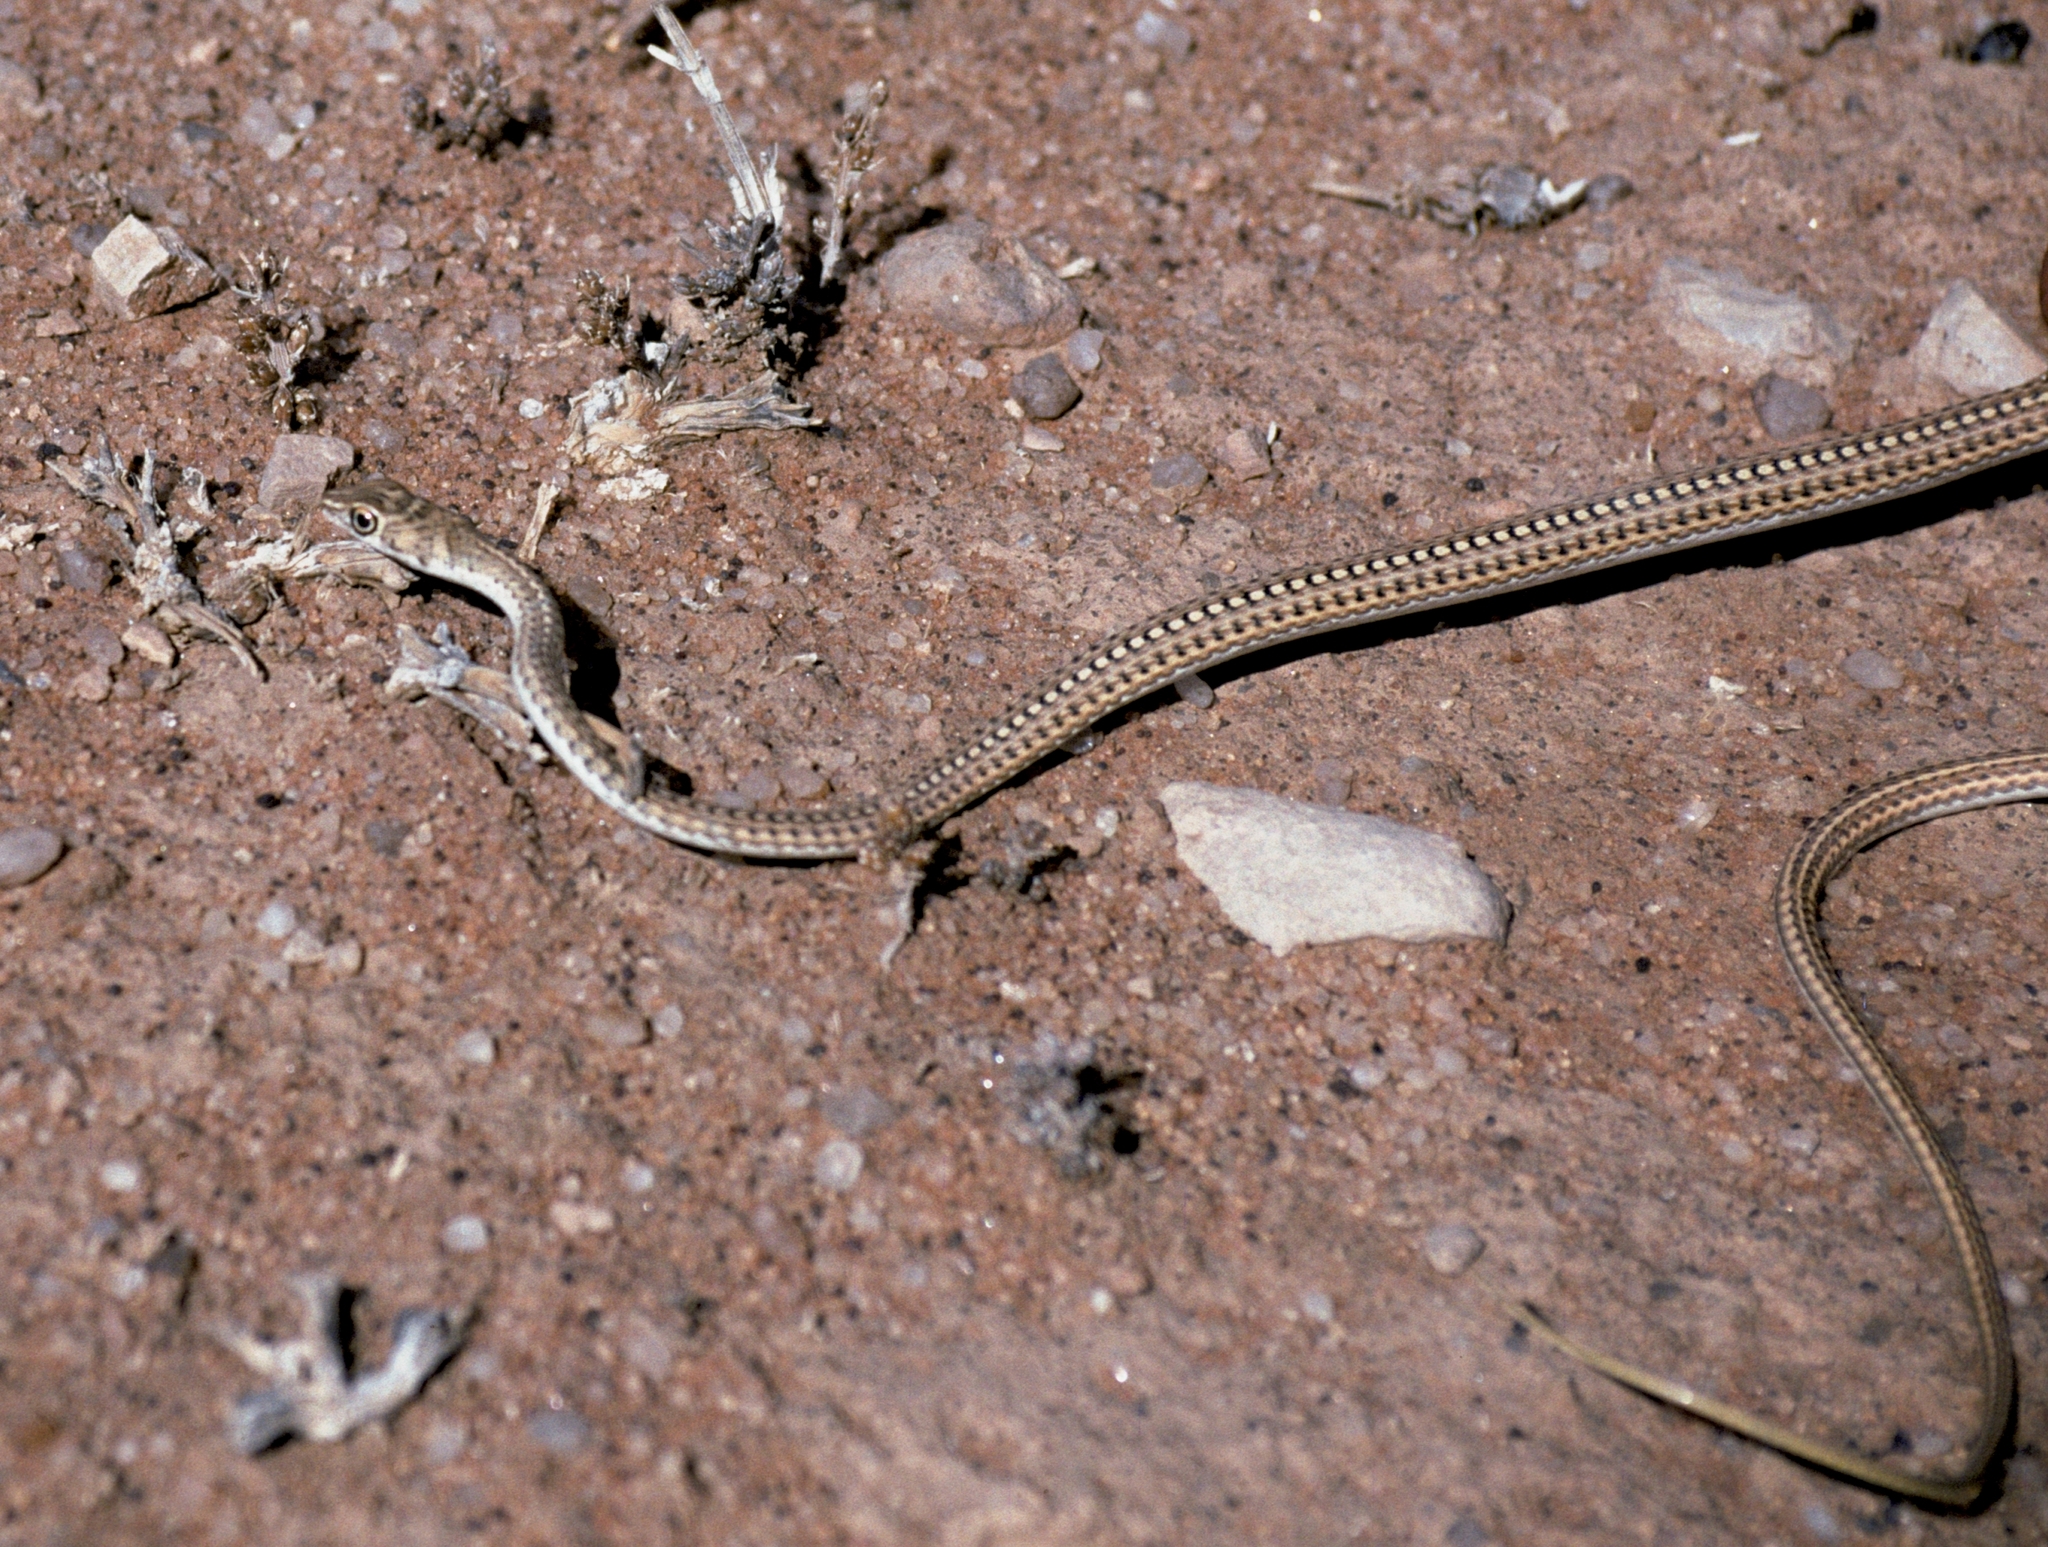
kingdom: Animalia
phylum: Chordata
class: Squamata
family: Psammophiidae
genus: Psammophis
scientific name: Psammophis leightoni
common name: Cape sand snake
